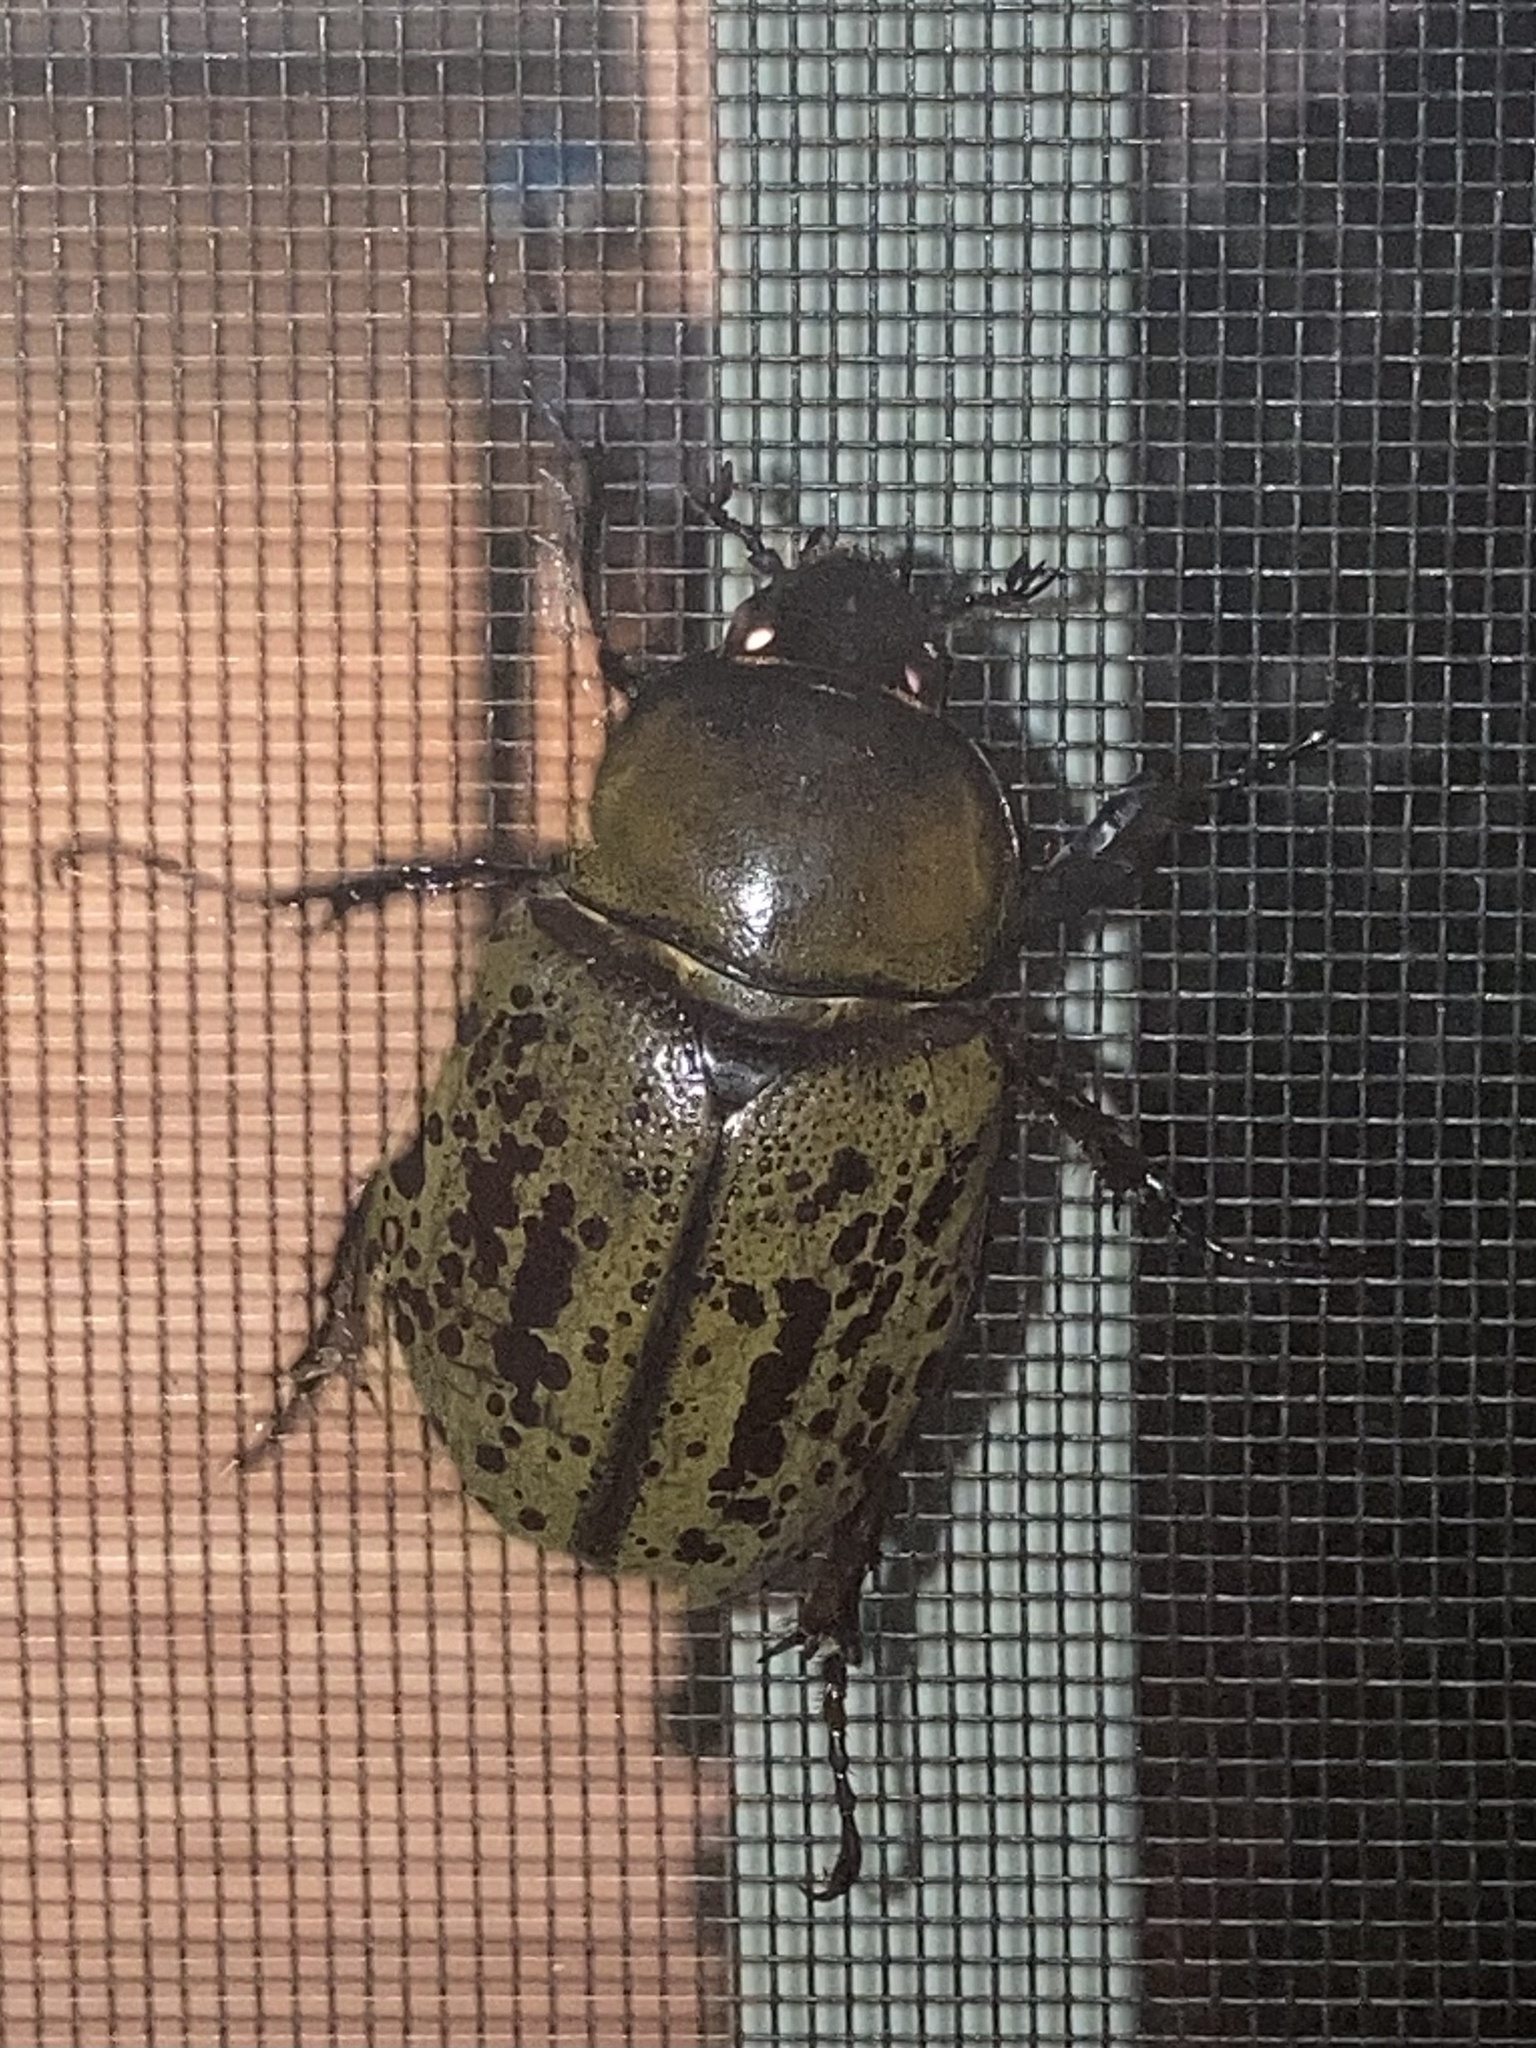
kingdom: Animalia
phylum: Arthropoda
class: Insecta
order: Coleoptera
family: Scarabaeidae
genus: Dynastes
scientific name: Dynastes tityus
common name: Eastern hercules beetle
